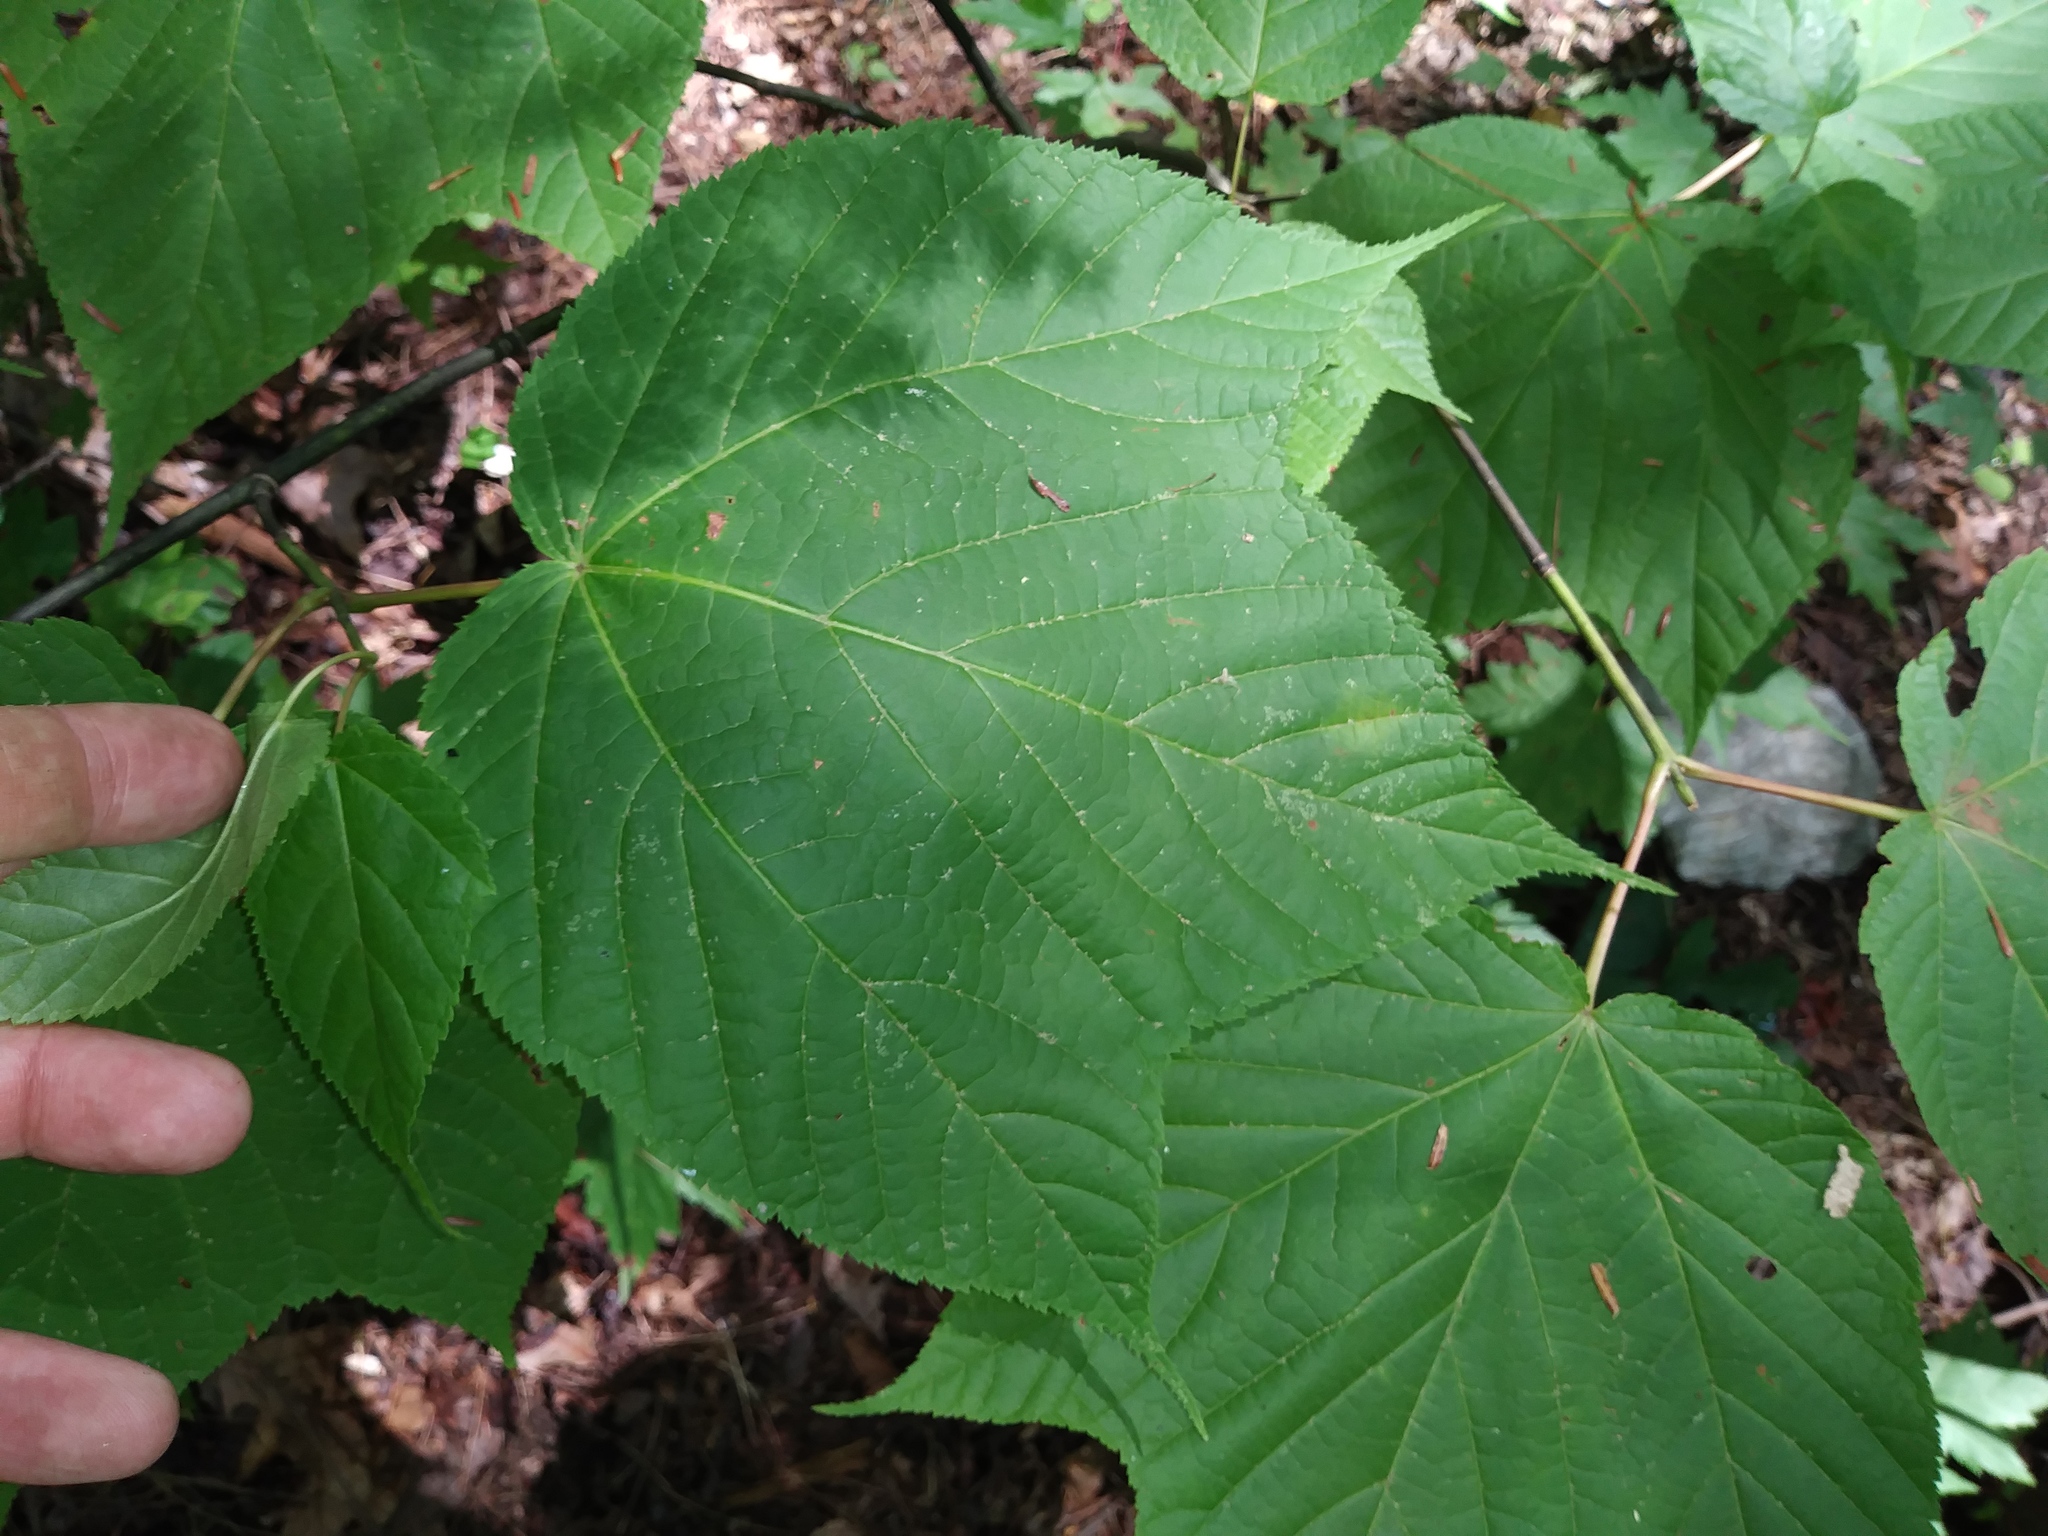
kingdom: Plantae
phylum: Tracheophyta
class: Magnoliopsida
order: Sapindales
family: Sapindaceae
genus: Acer
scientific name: Acer pensylvanicum
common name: Moosewood
